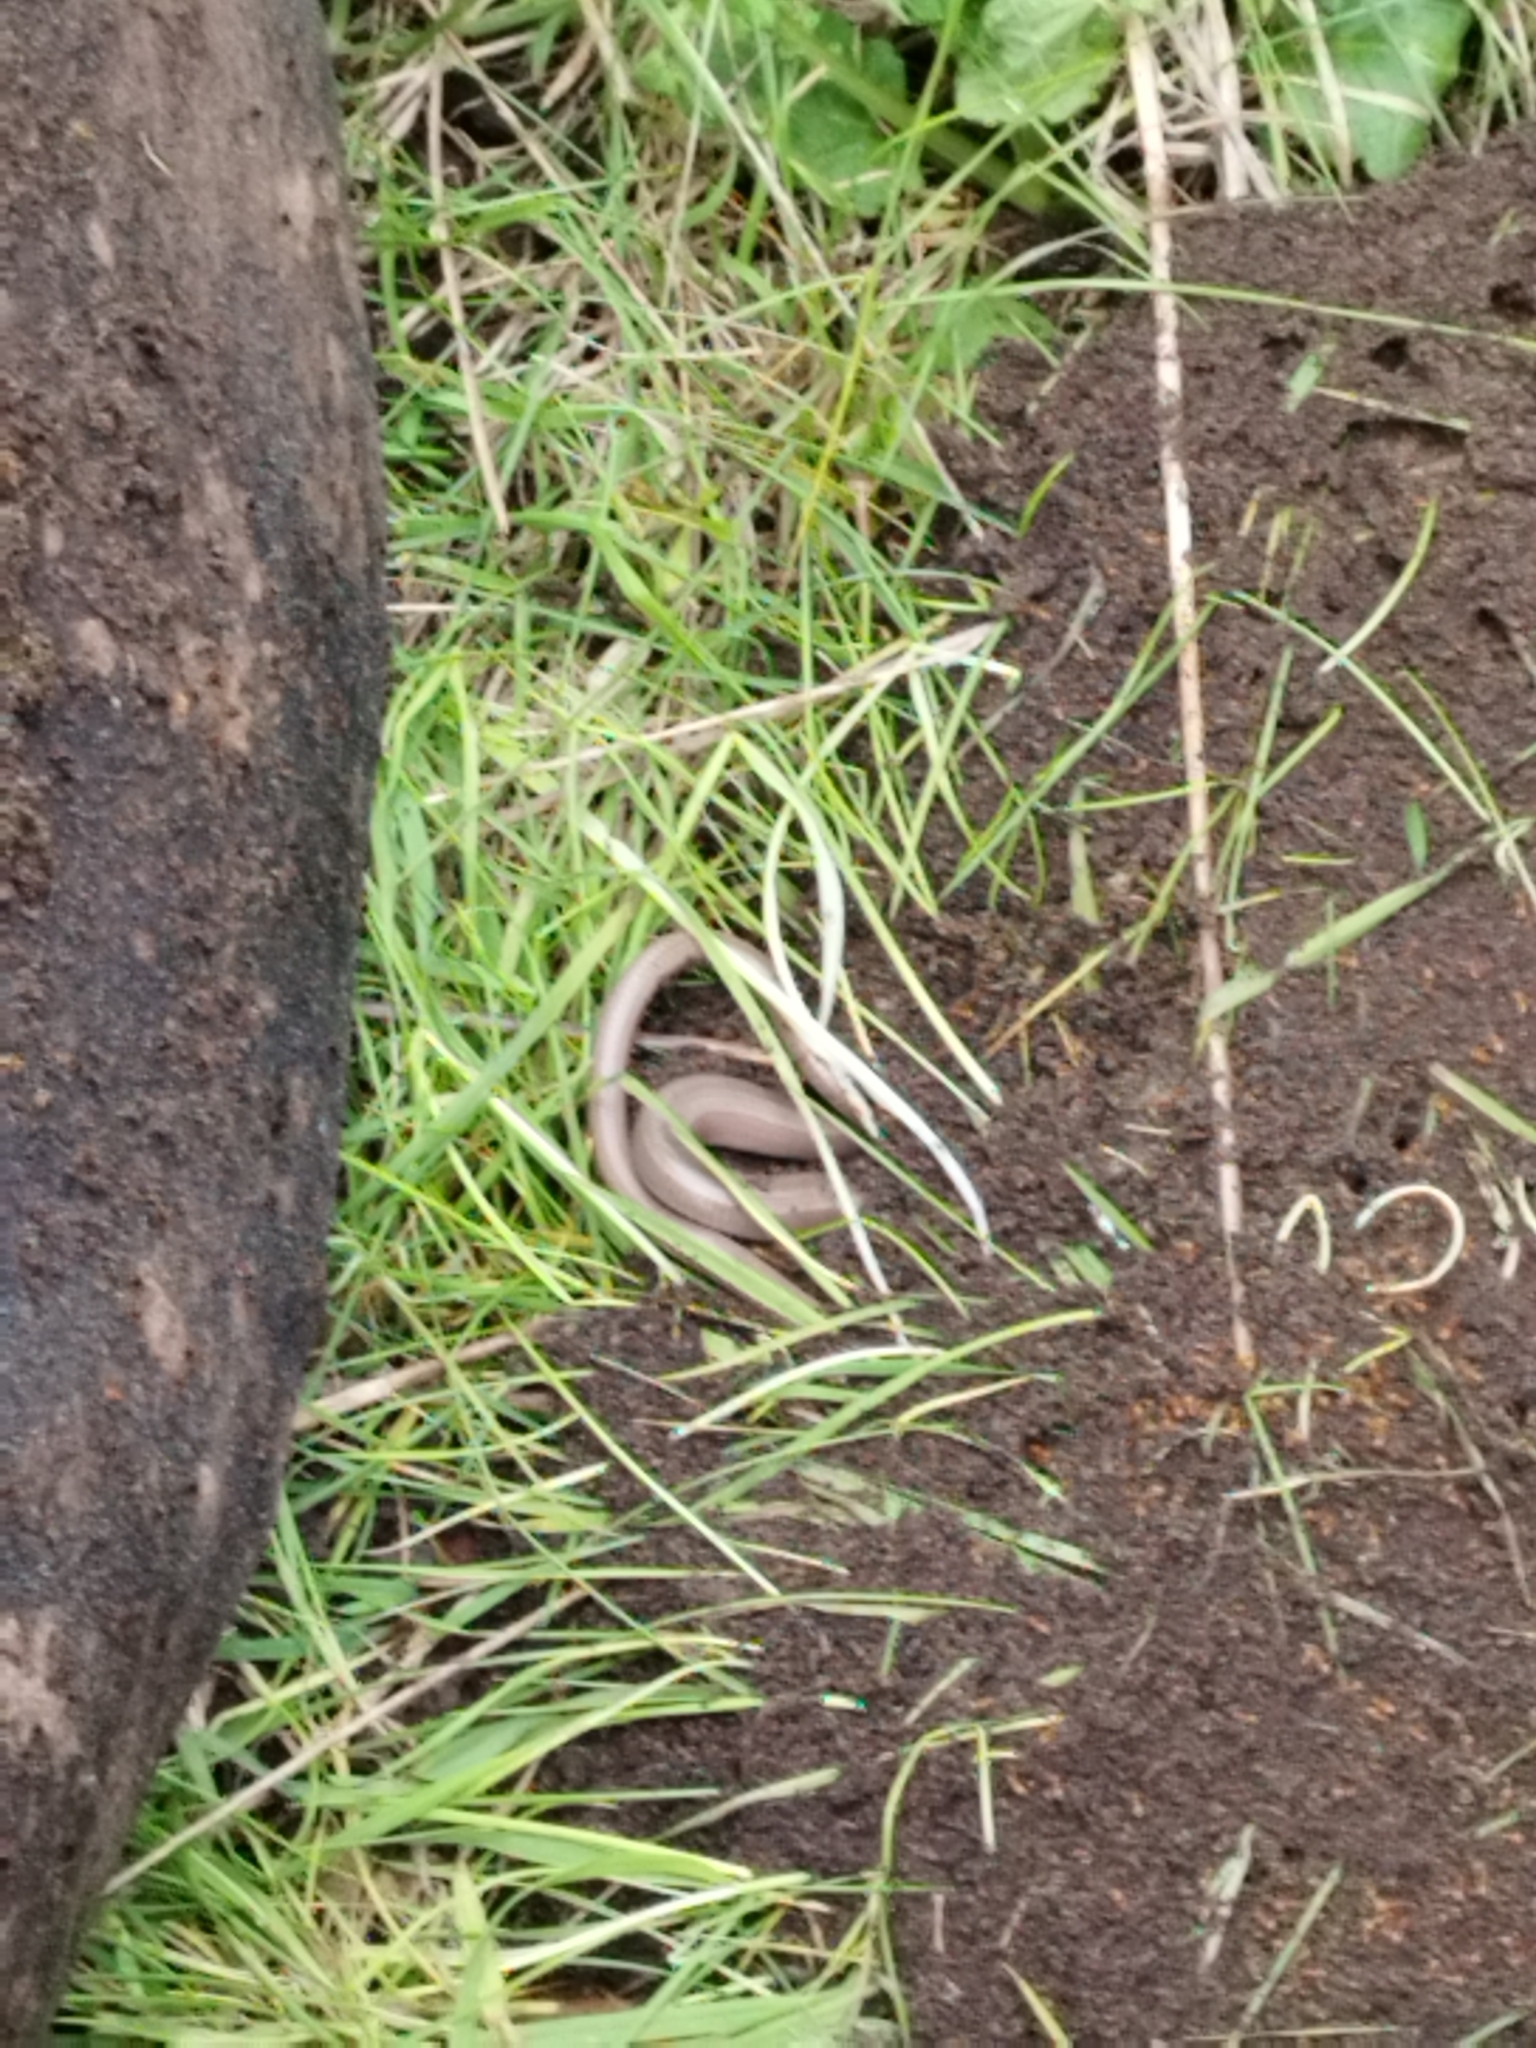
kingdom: Animalia
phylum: Chordata
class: Squamata
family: Anguidae
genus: Anguis
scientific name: Anguis fragilis
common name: Slow worm
